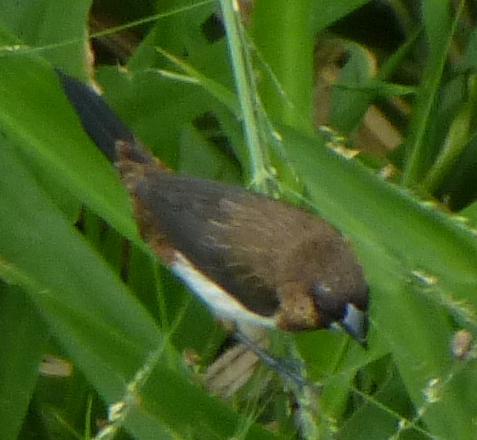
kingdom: Animalia
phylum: Chordata
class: Aves
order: Passeriformes
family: Estrildidae
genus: Lonchura
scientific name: Lonchura striata
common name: White-rumped munia
